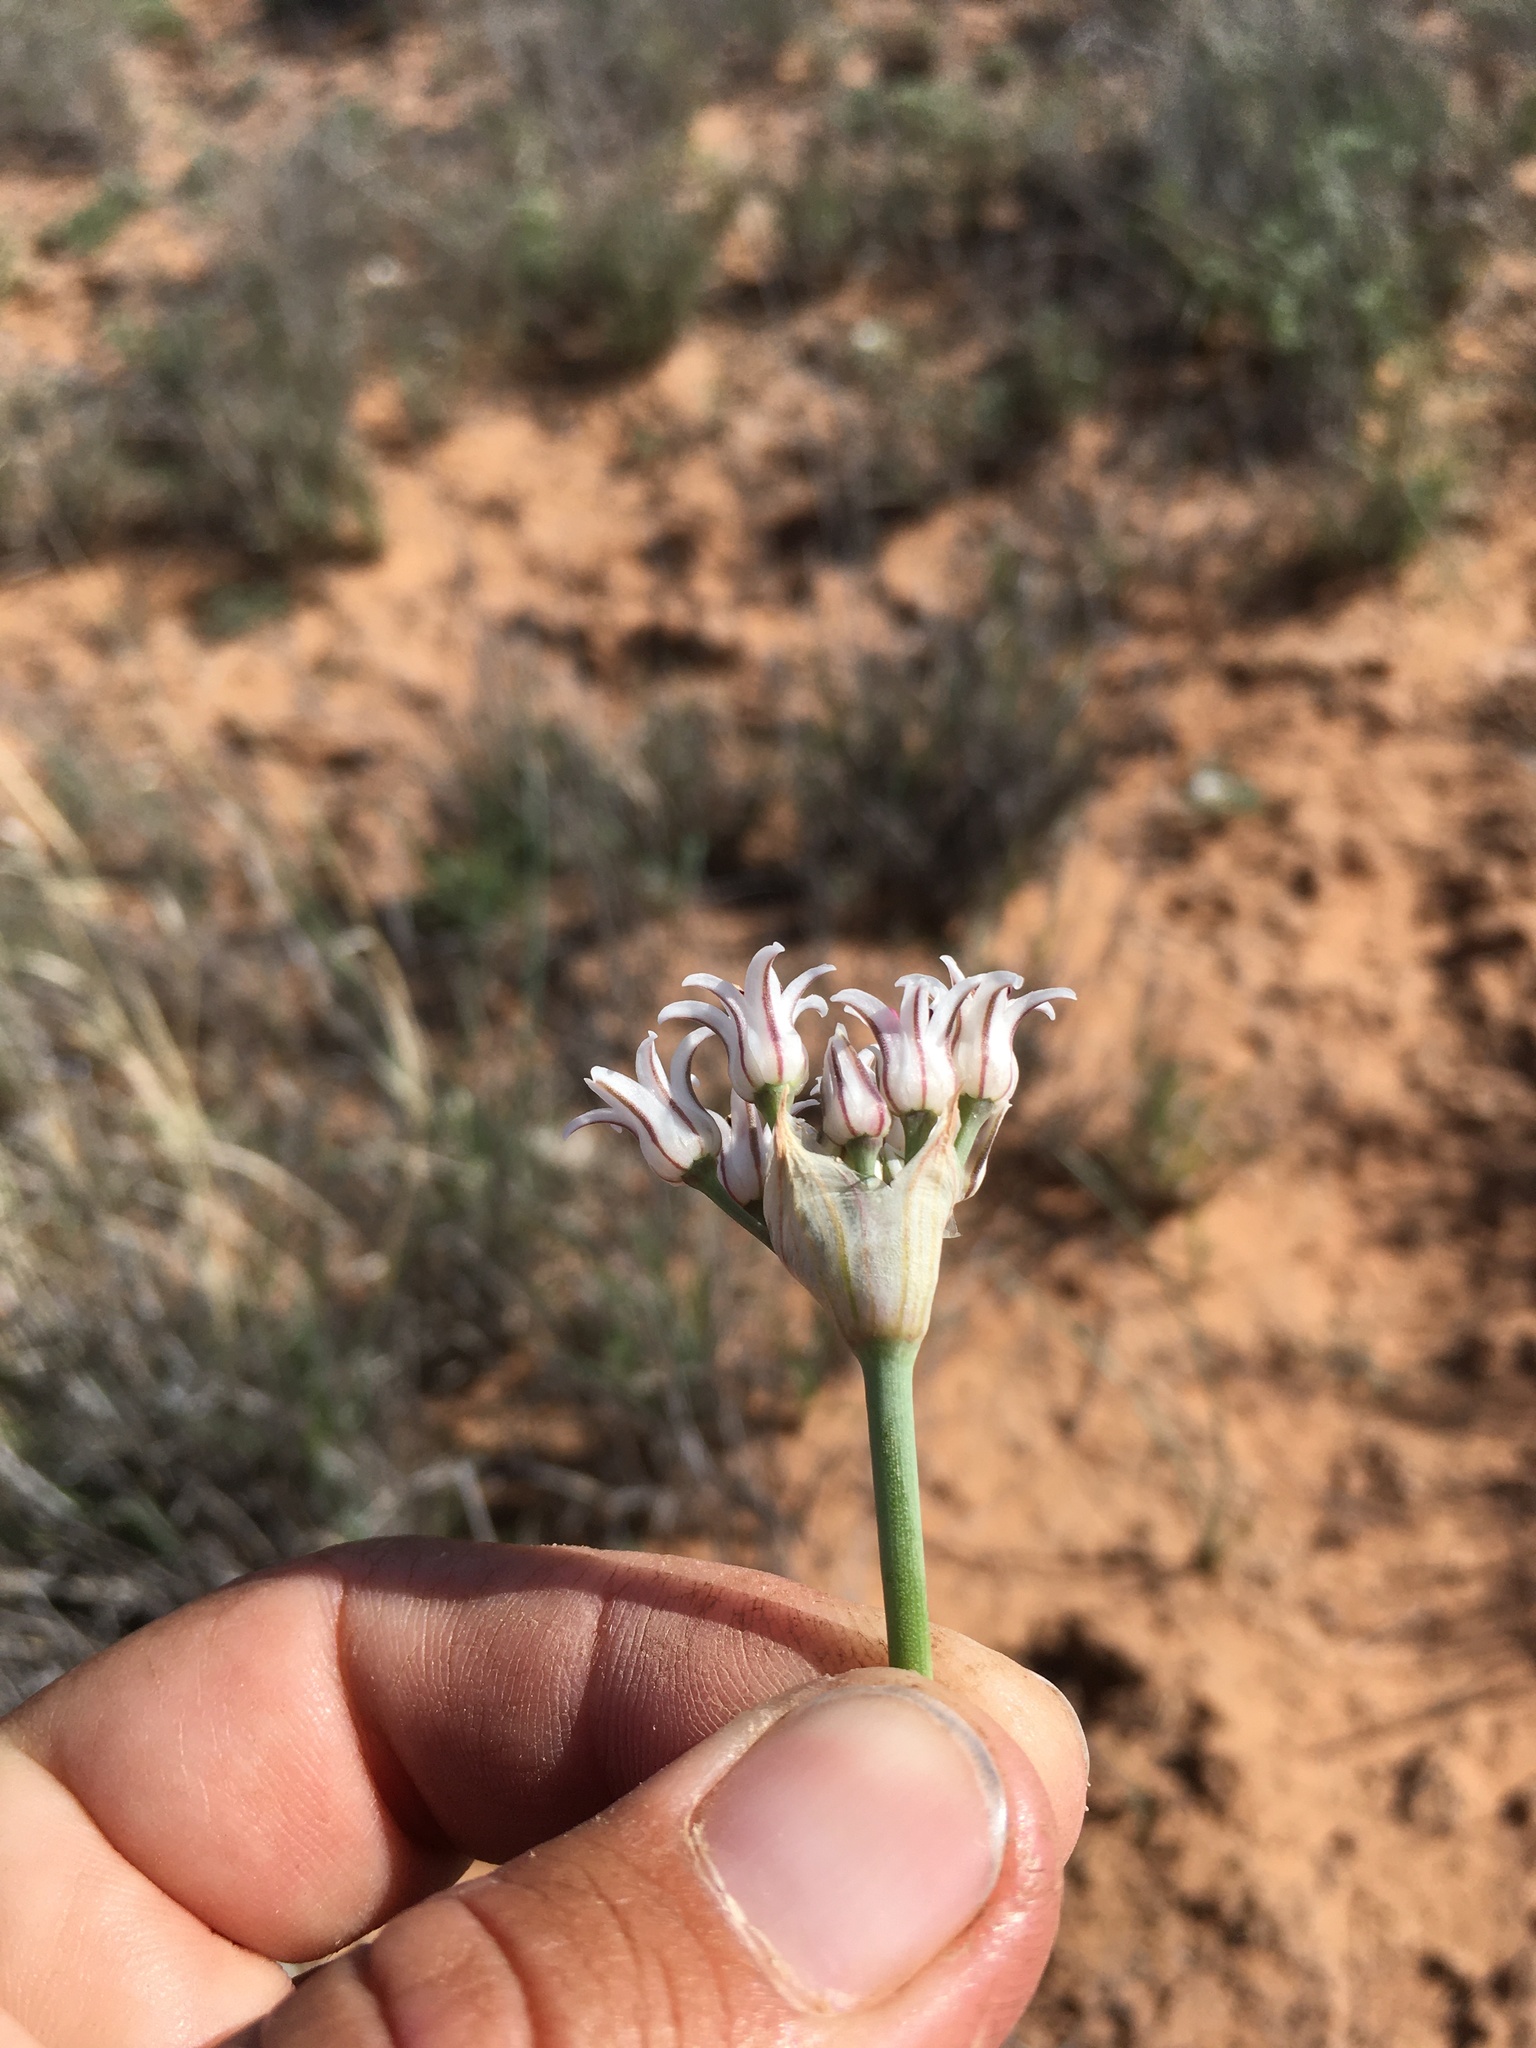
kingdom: Plantae
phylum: Tracheophyta
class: Liliopsida
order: Asparagales
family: Amaryllidaceae
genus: Allium
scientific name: Allium macropetalum
